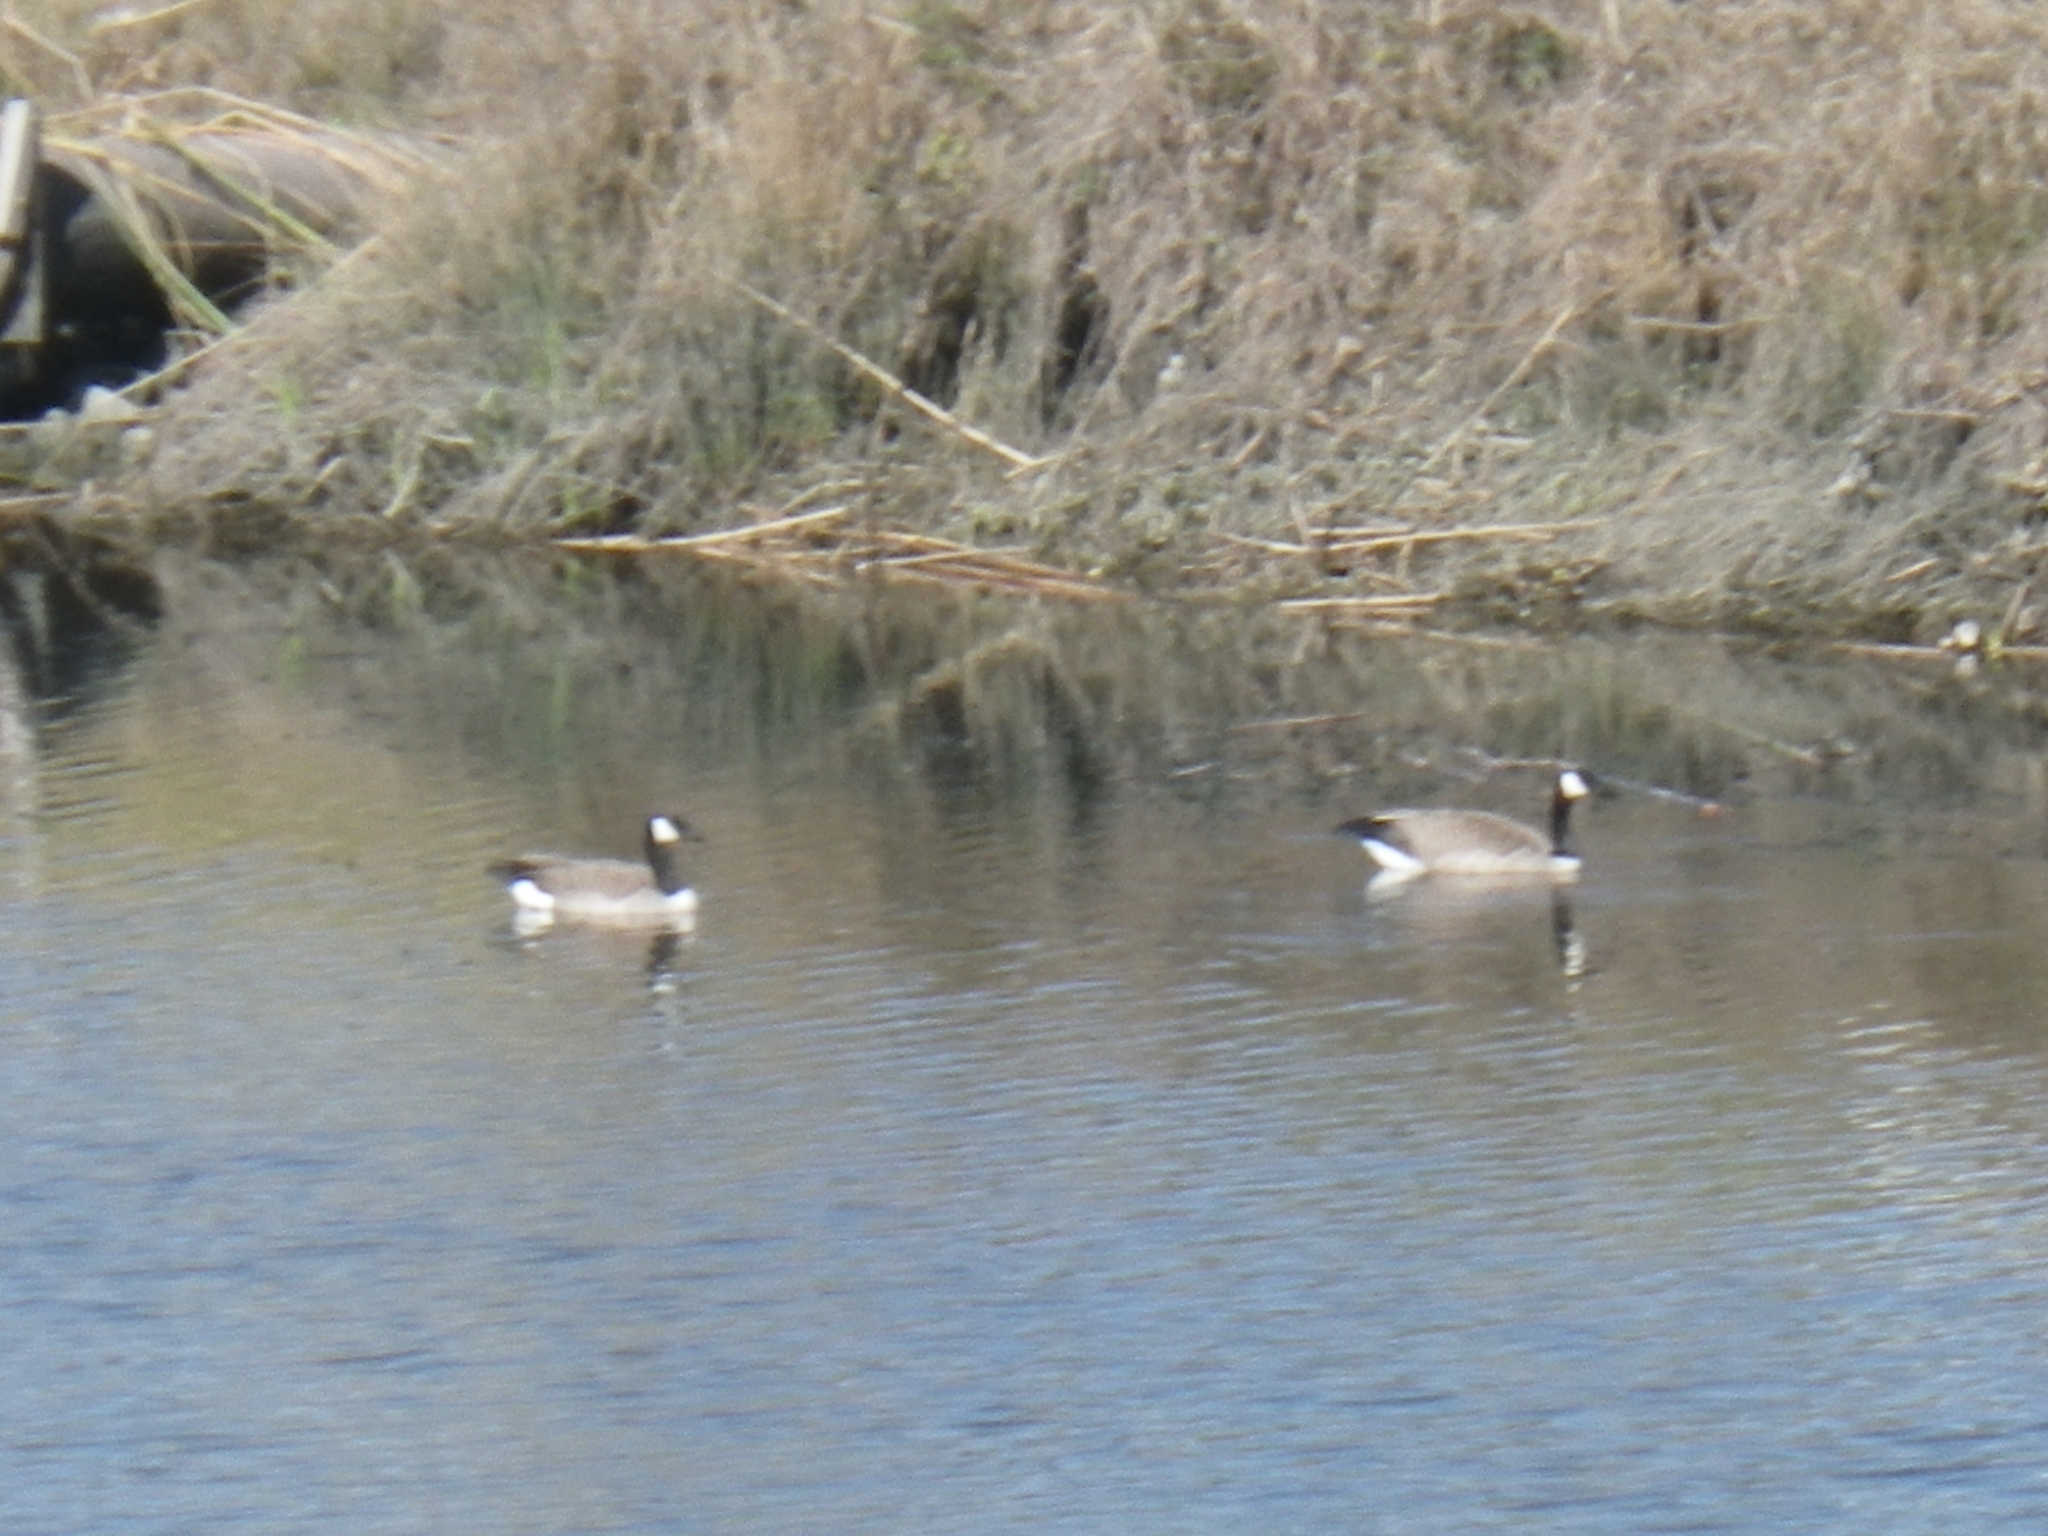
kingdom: Animalia
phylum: Chordata
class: Aves
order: Anseriformes
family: Anatidae
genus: Branta
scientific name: Branta canadensis
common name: Canada goose
